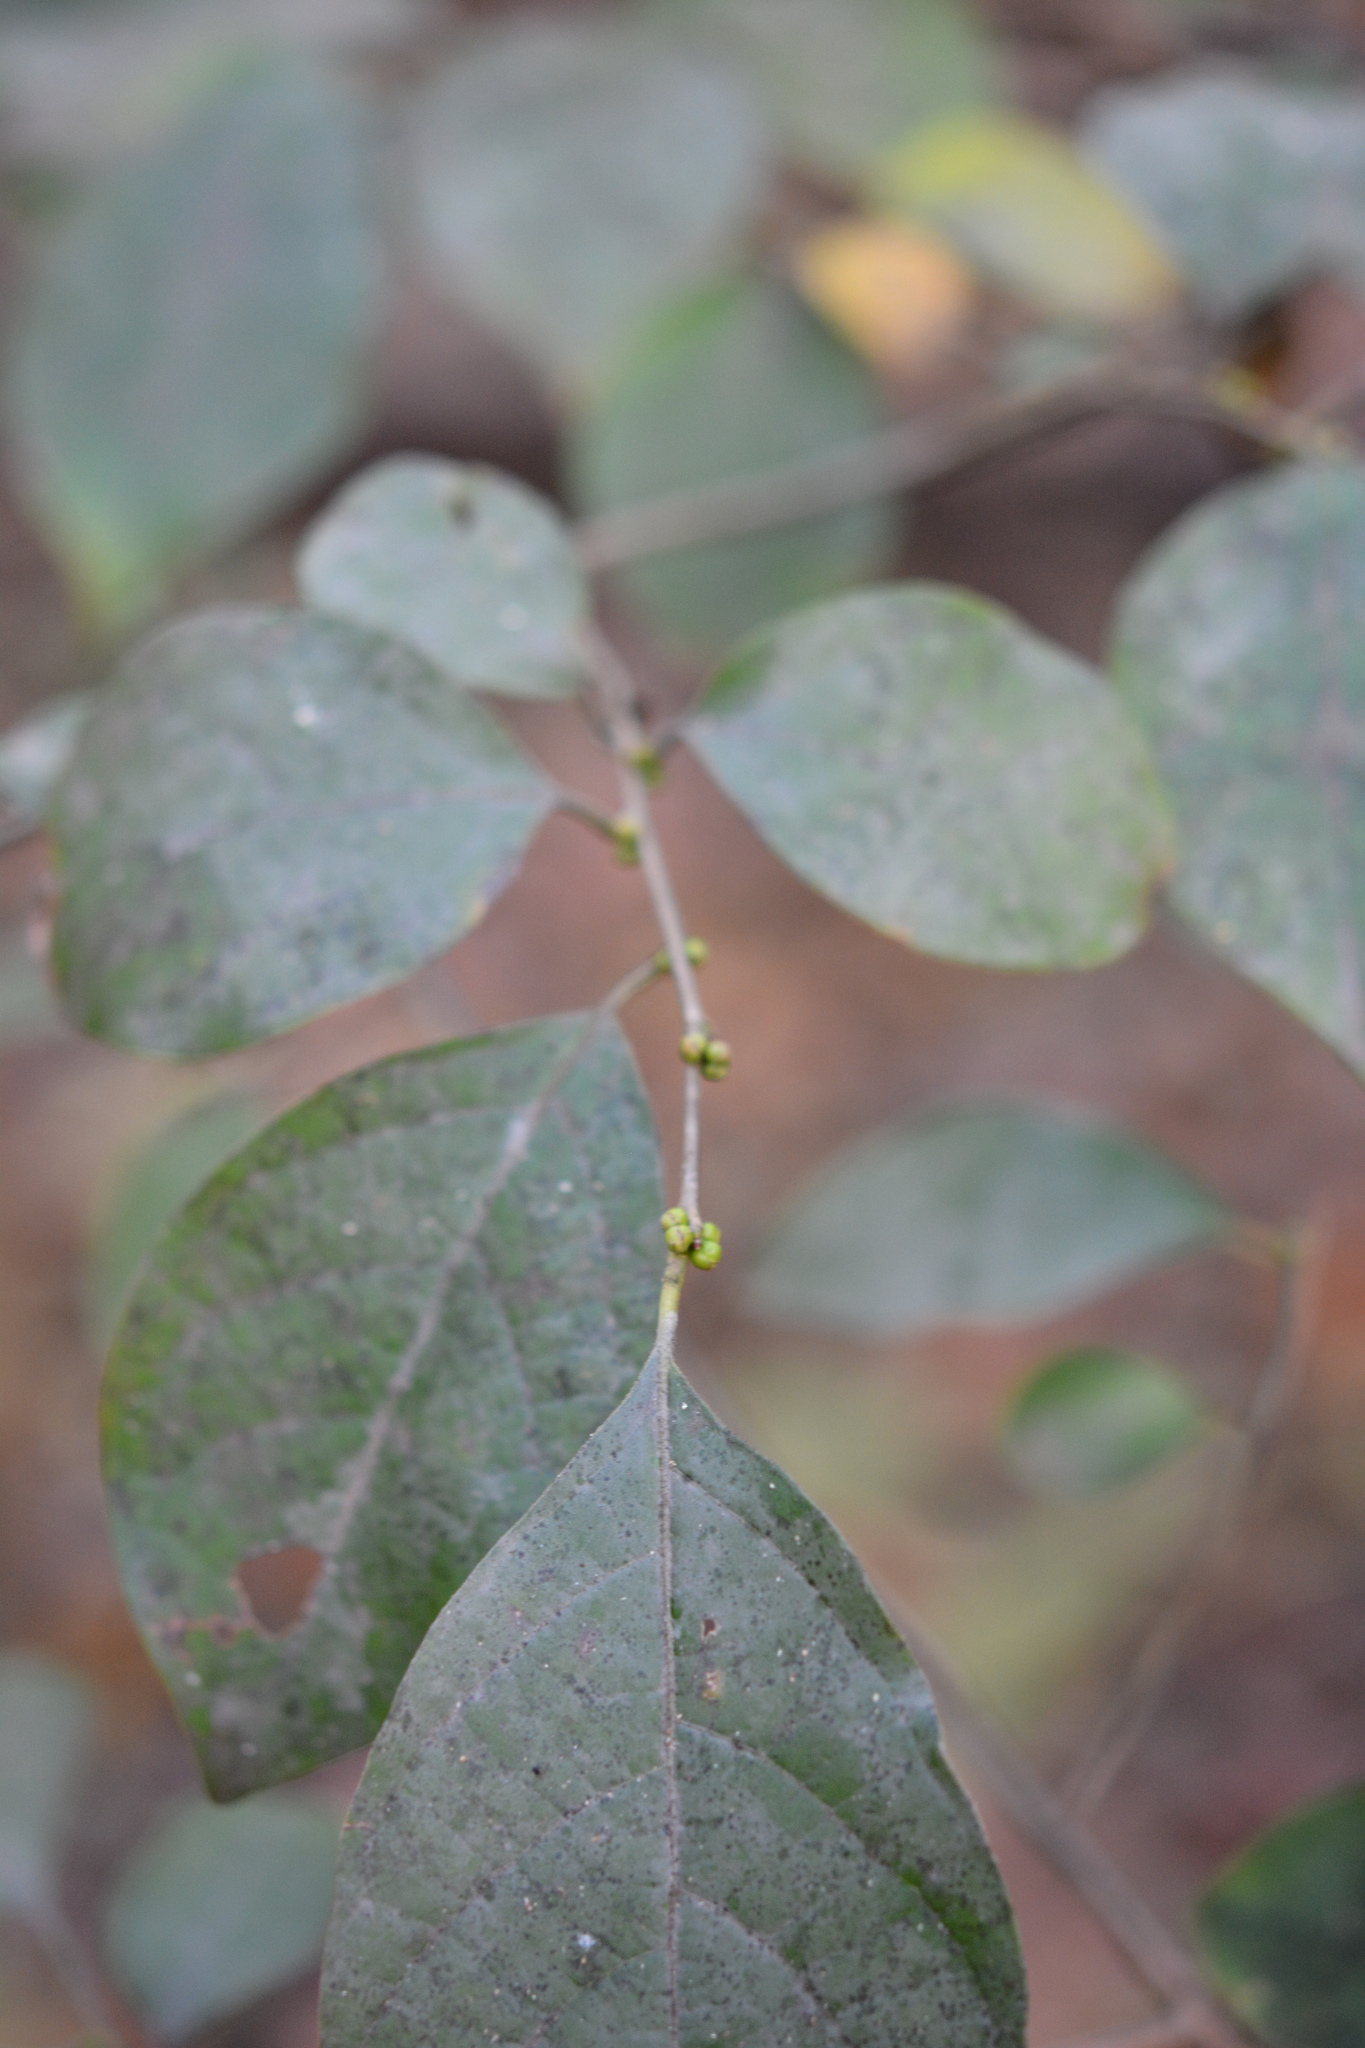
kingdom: Plantae
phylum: Tracheophyta
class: Magnoliopsida
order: Laurales
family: Lauraceae
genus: Lindera
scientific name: Lindera benzoin
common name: Spicebush
